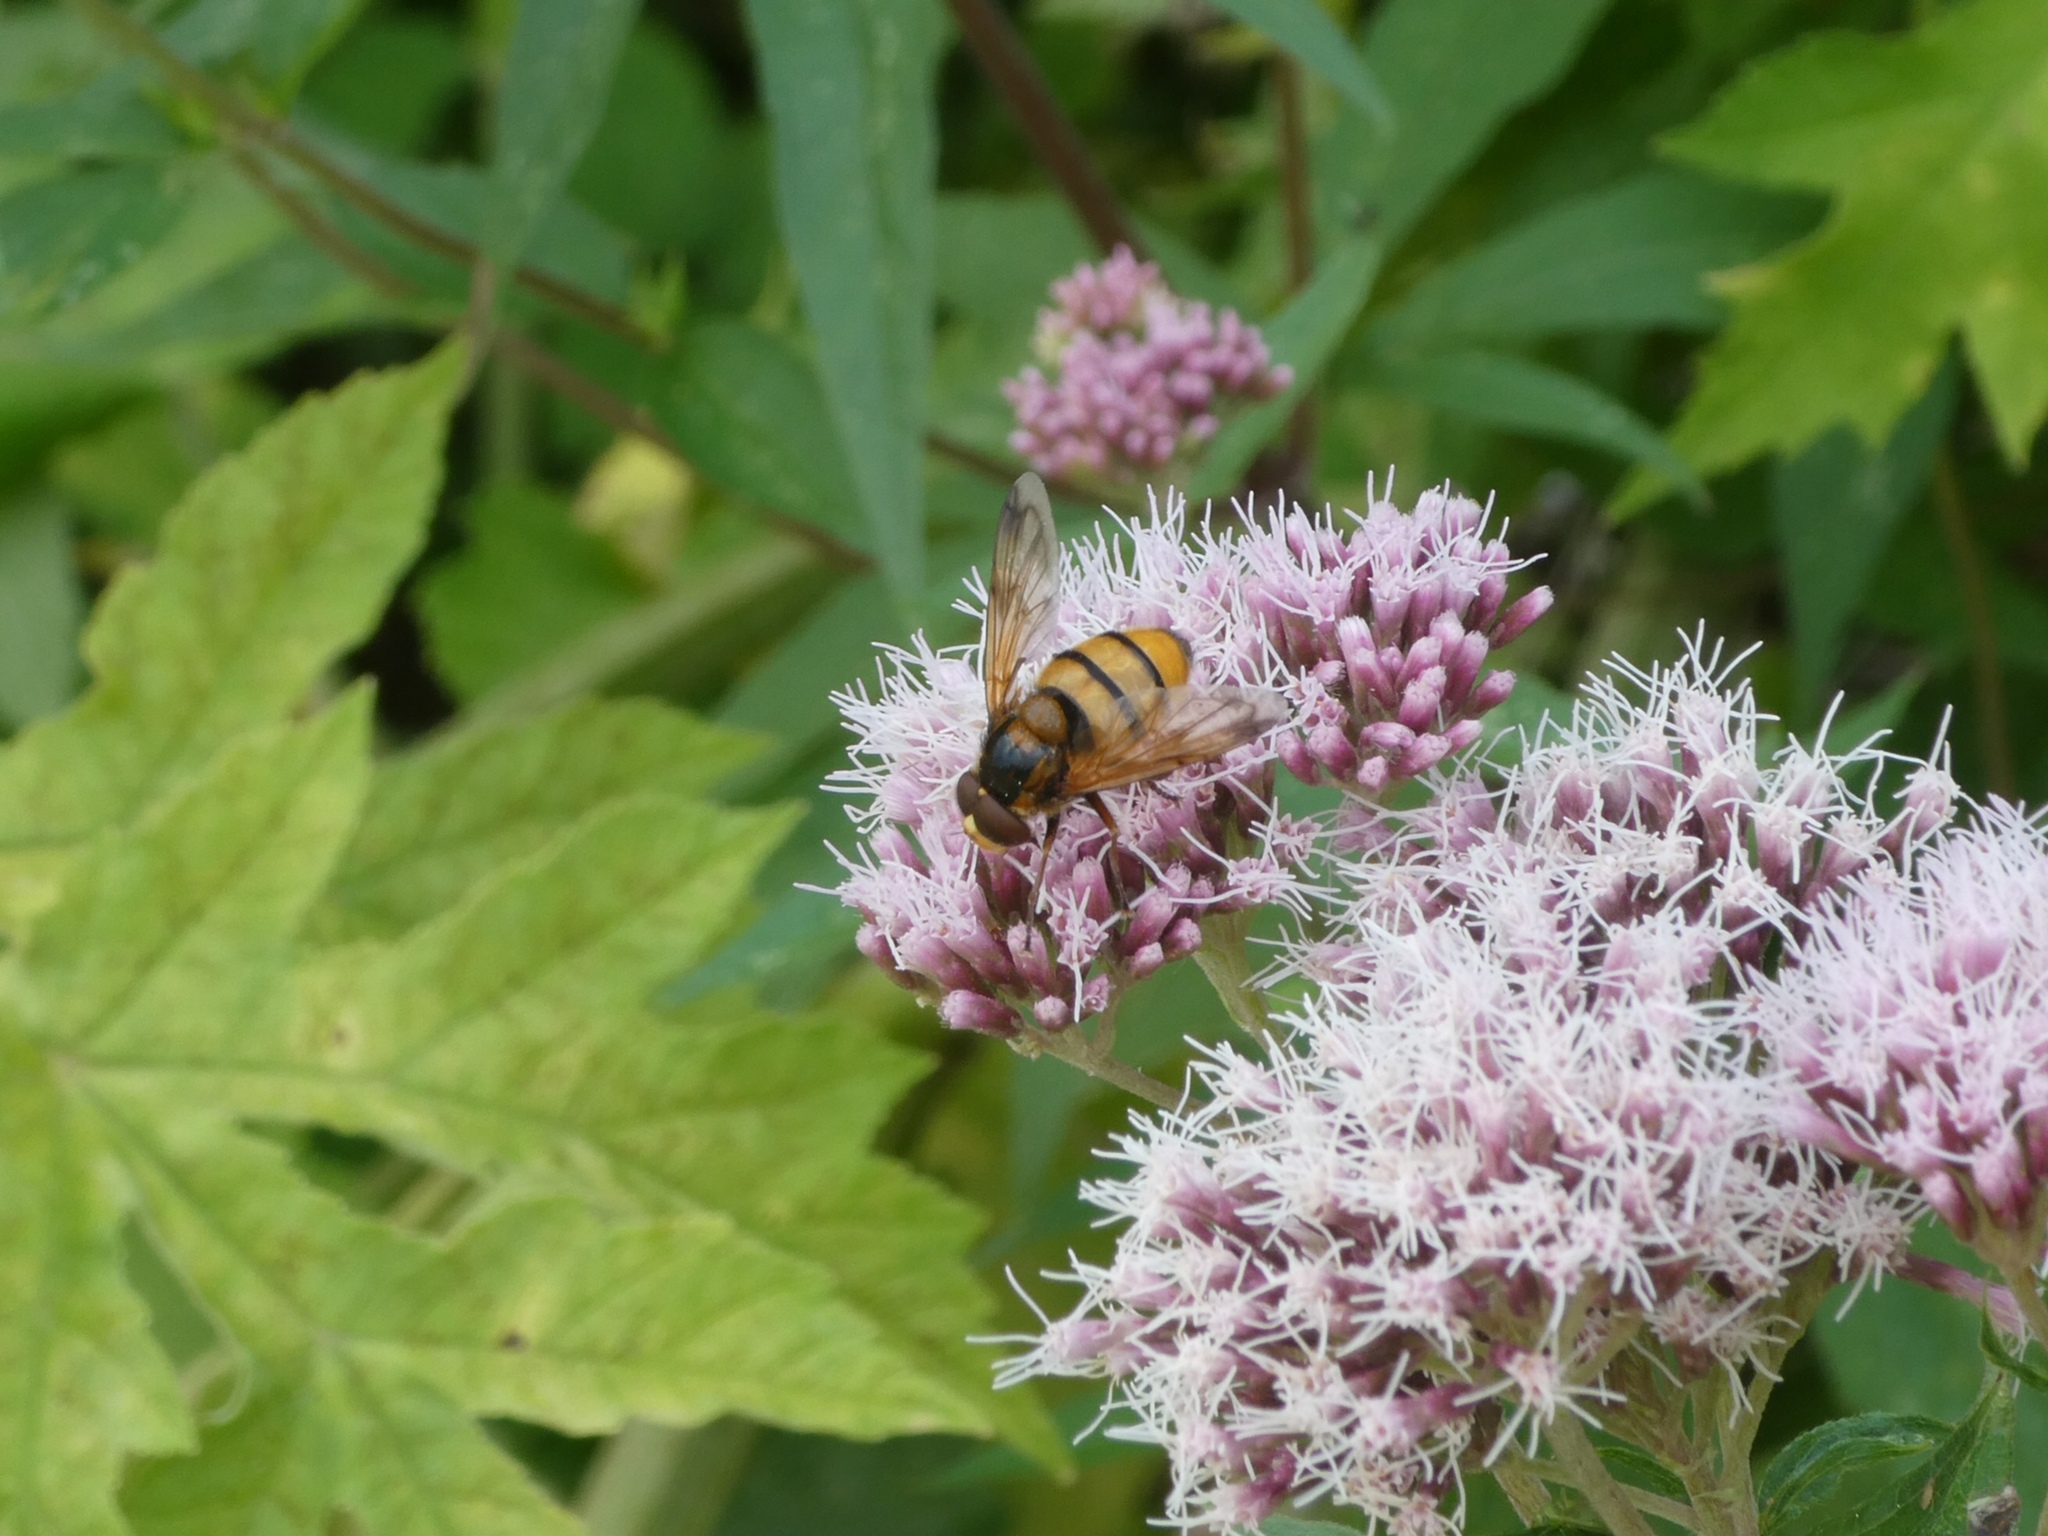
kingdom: Animalia
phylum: Arthropoda
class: Insecta
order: Diptera
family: Syrphidae
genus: Volucella
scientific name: Volucella inanis
